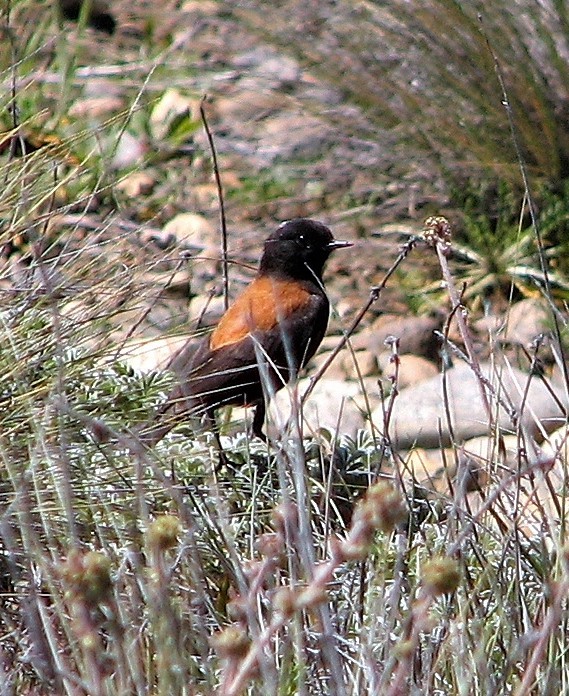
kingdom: Animalia
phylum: Chordata
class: Aves
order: Passeriformes
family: Tyrannidae
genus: Lessonia
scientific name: Lessonia rufa
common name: Austral negrito
